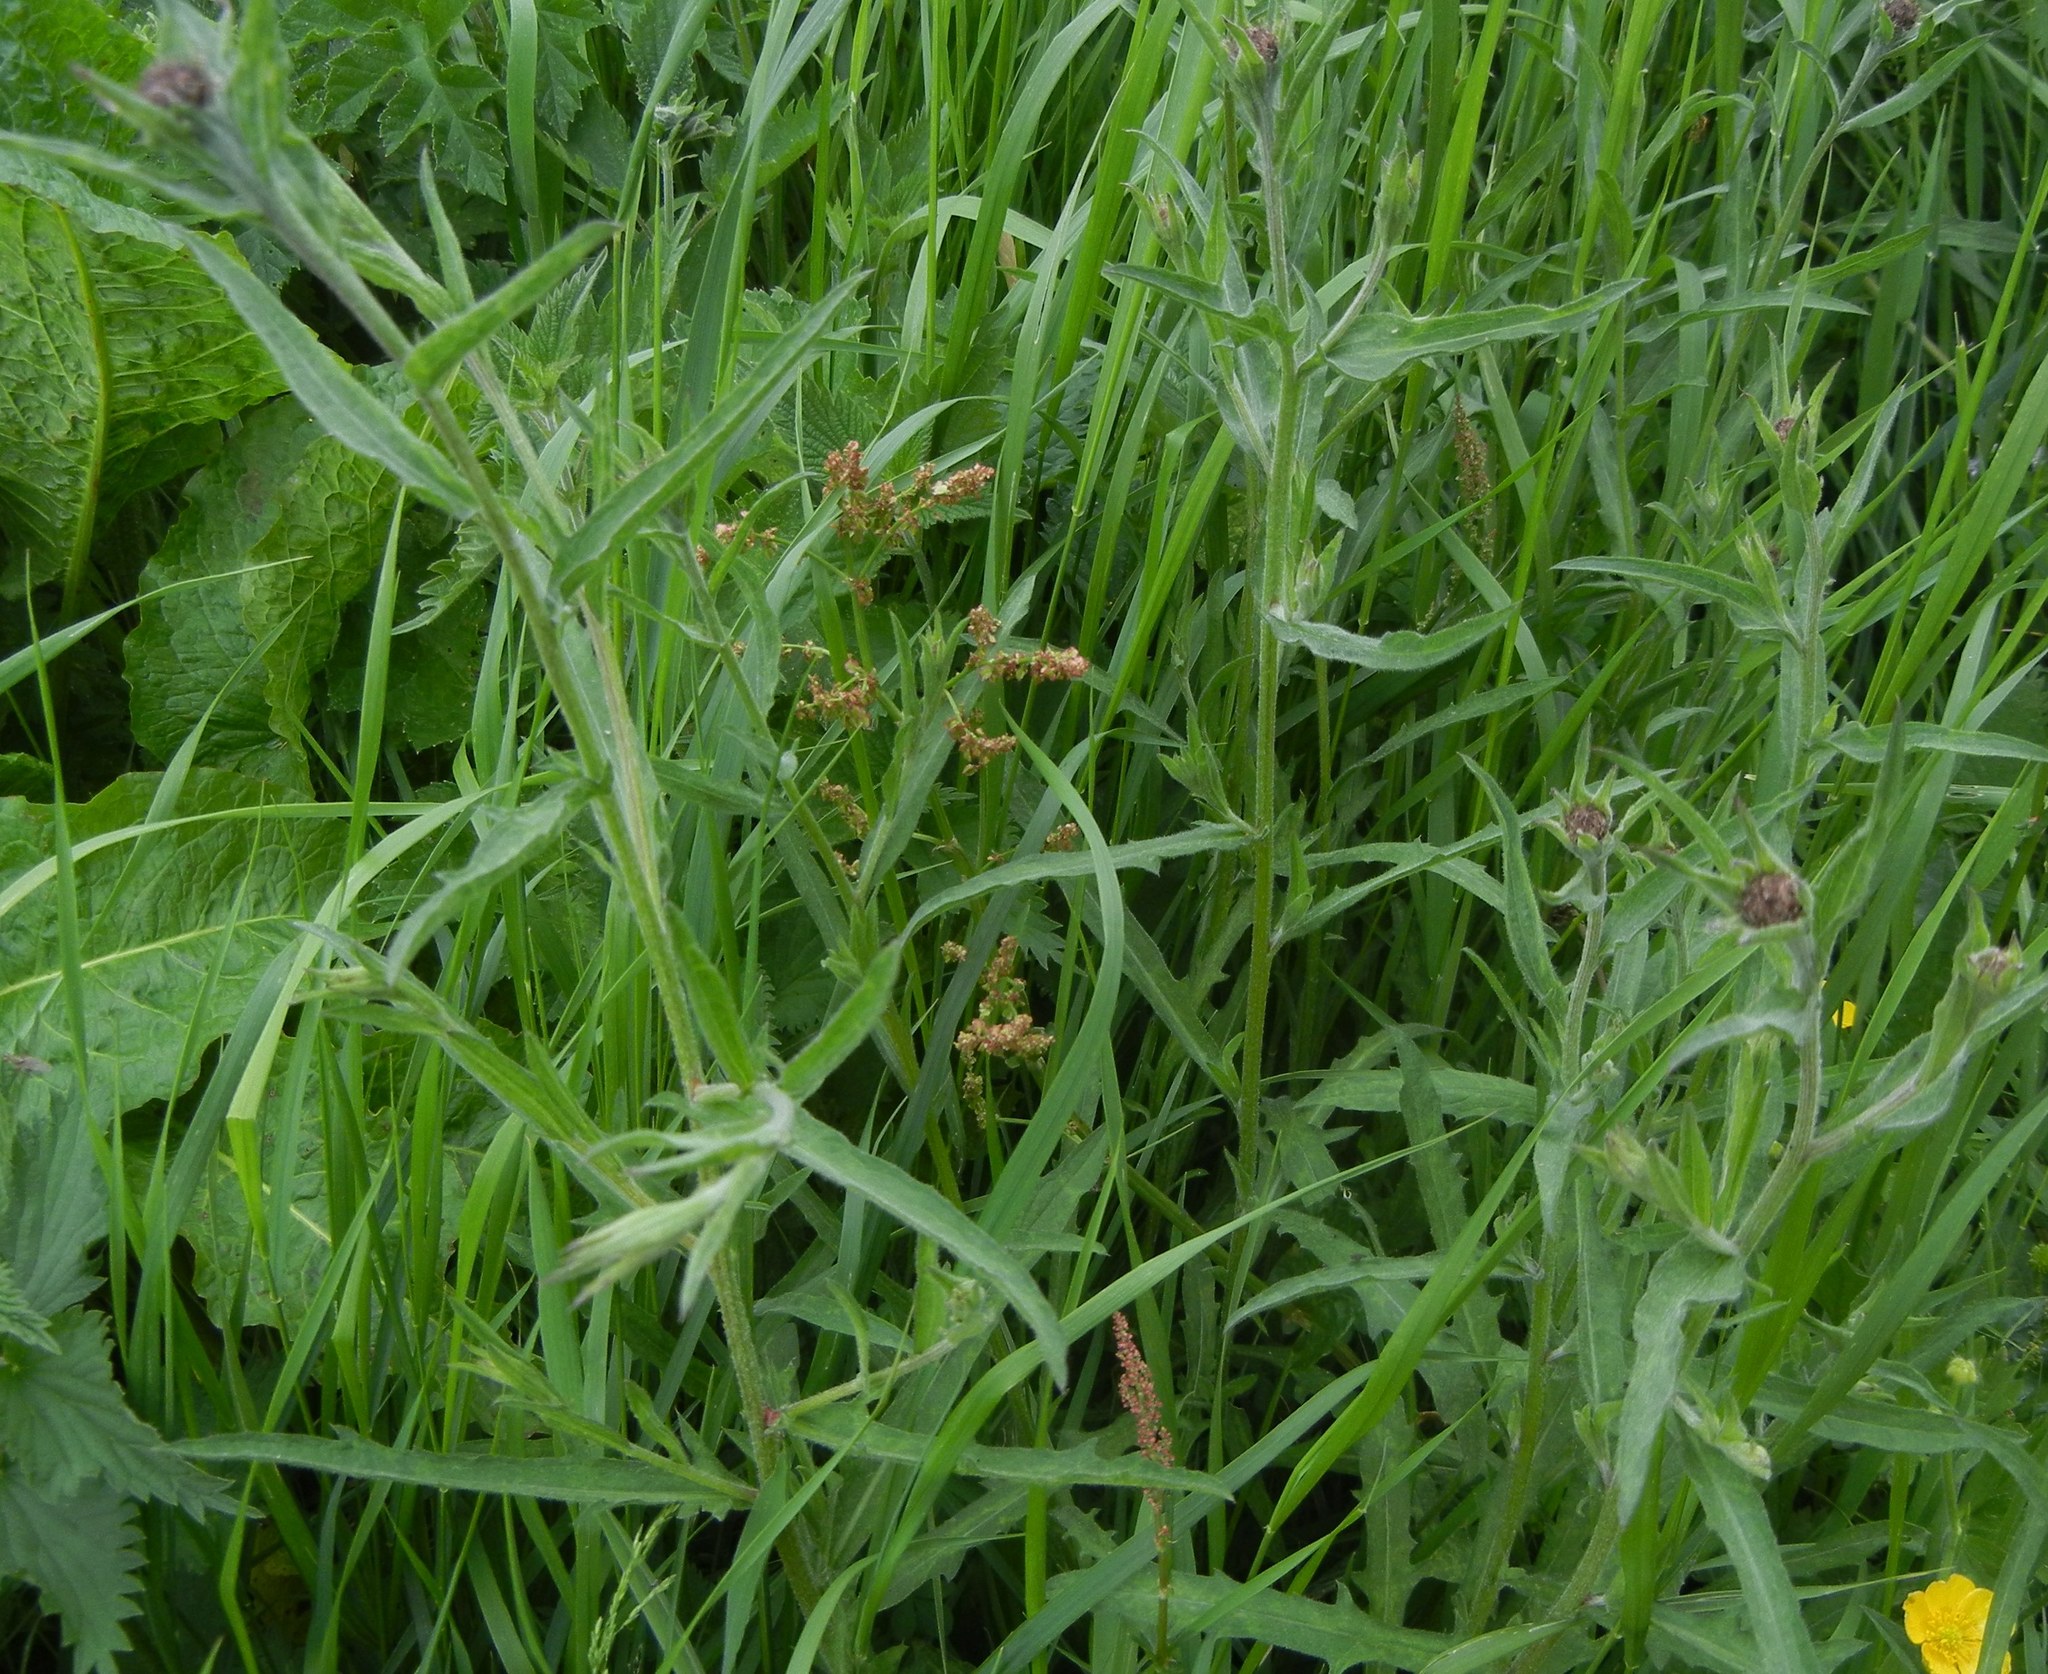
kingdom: Plantae
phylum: Tracheophyta
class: Magnoliopsida
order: Asterales
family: Asteraceae
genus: Centaurea
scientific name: Centaurea nigra
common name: Lesser knapweed
